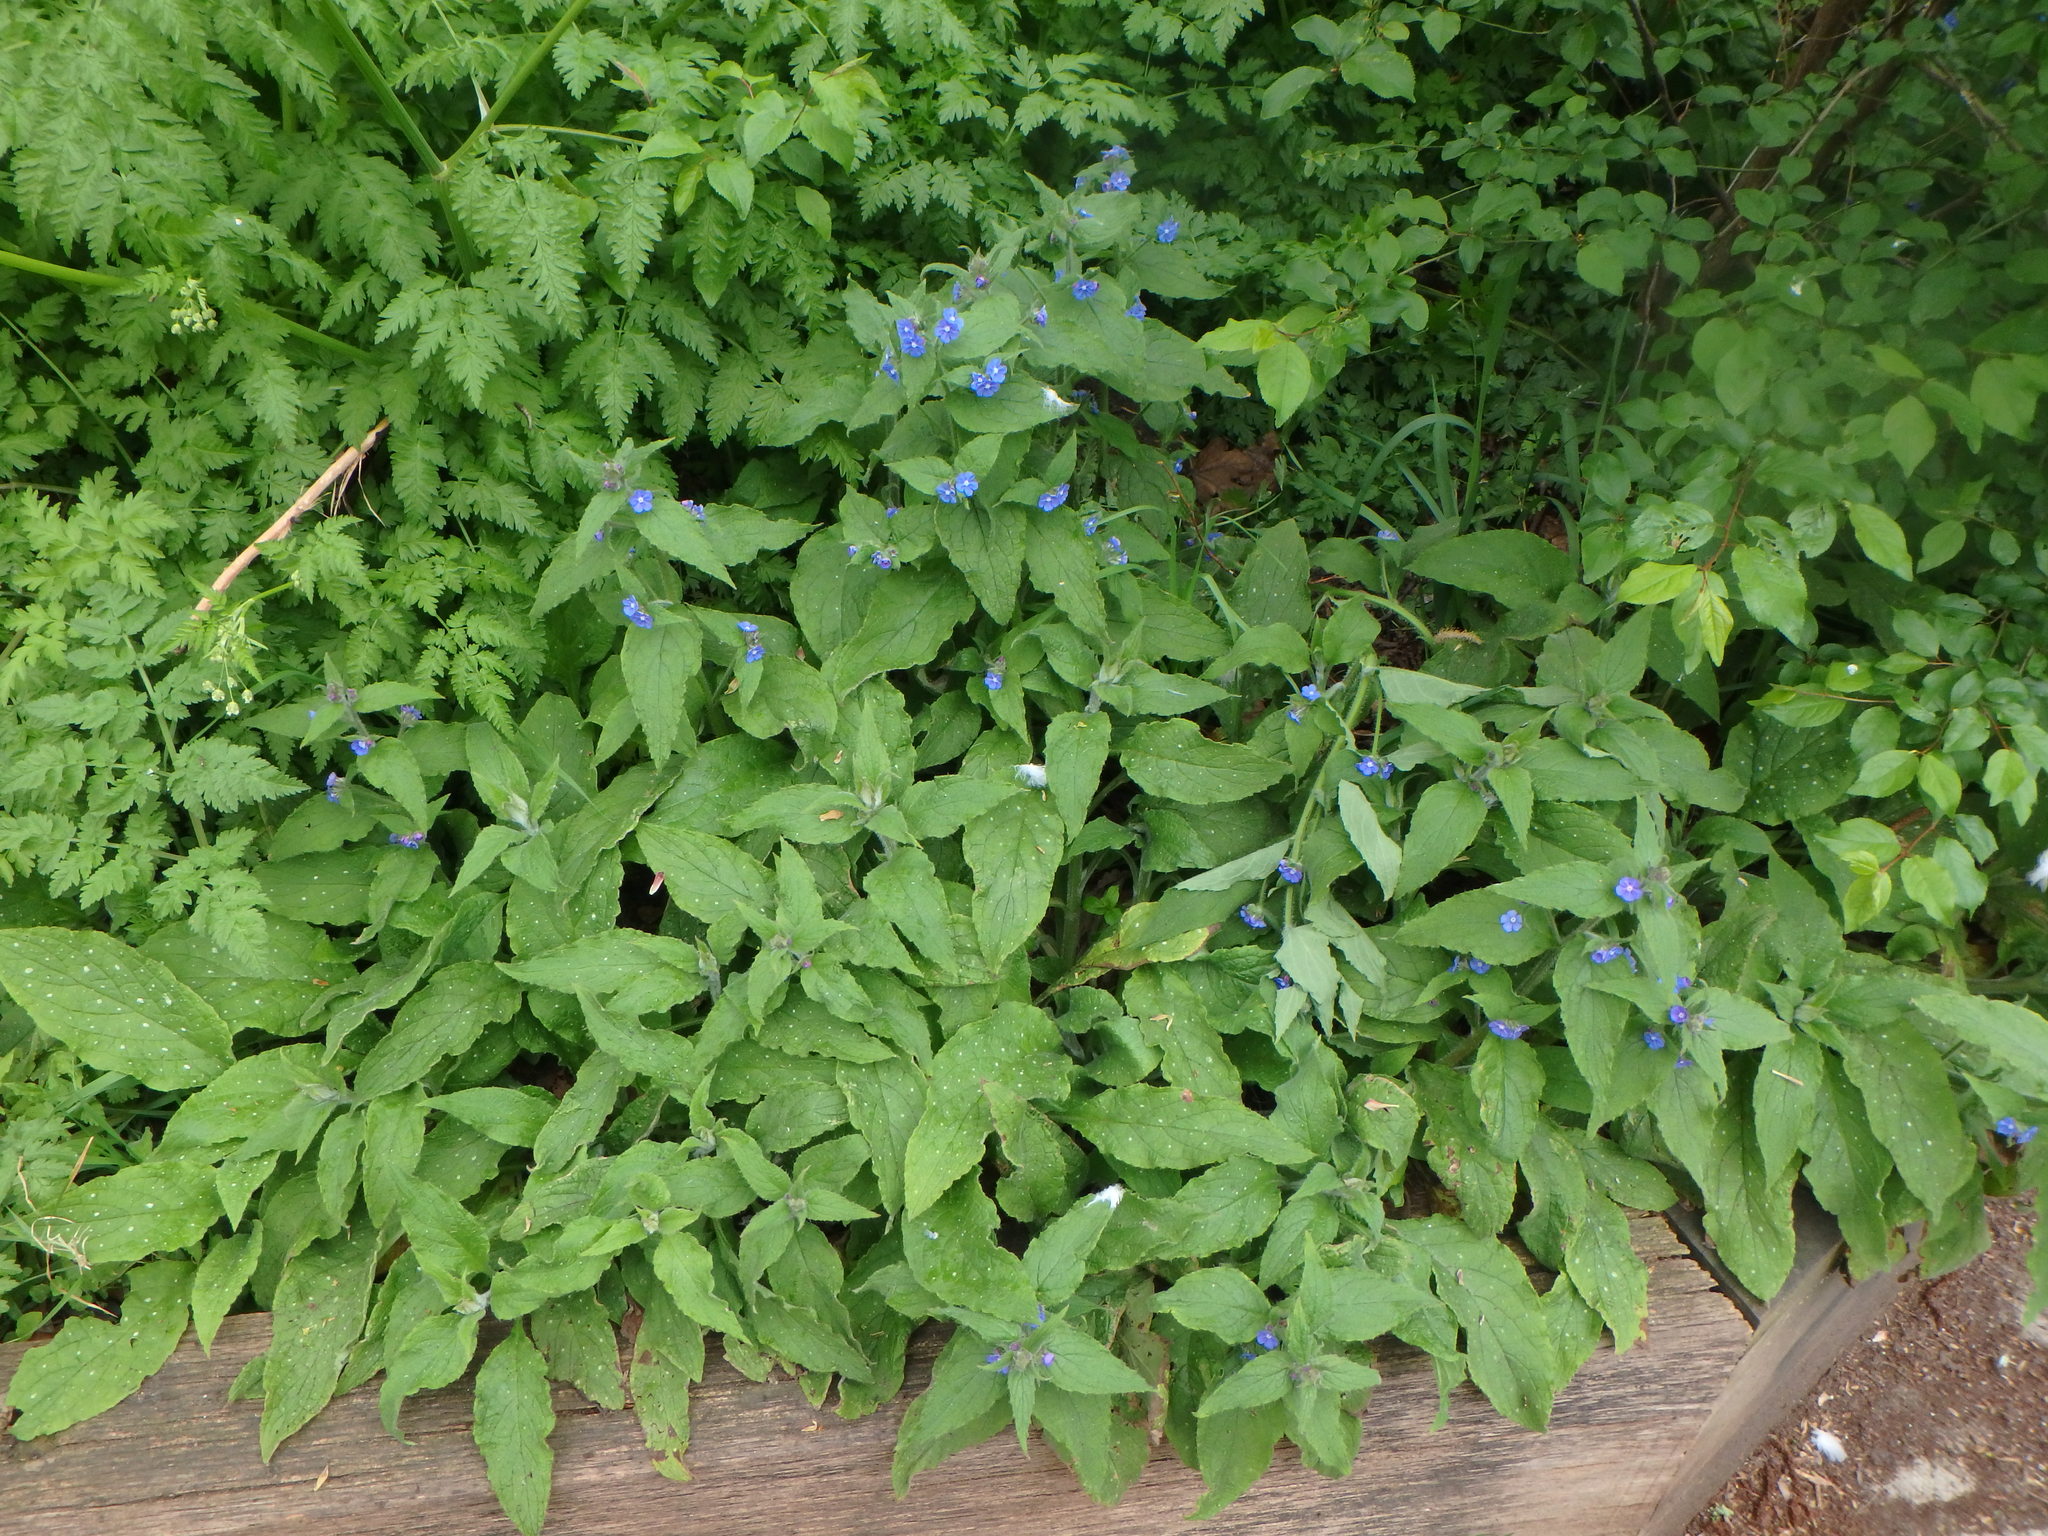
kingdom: Plantae
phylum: Tracheophyta
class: Magnoliopsida
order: Boraginales
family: Boraginaceae
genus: Pentaglottis
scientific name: Pentaglottis sempervirens
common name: Green alkanet
